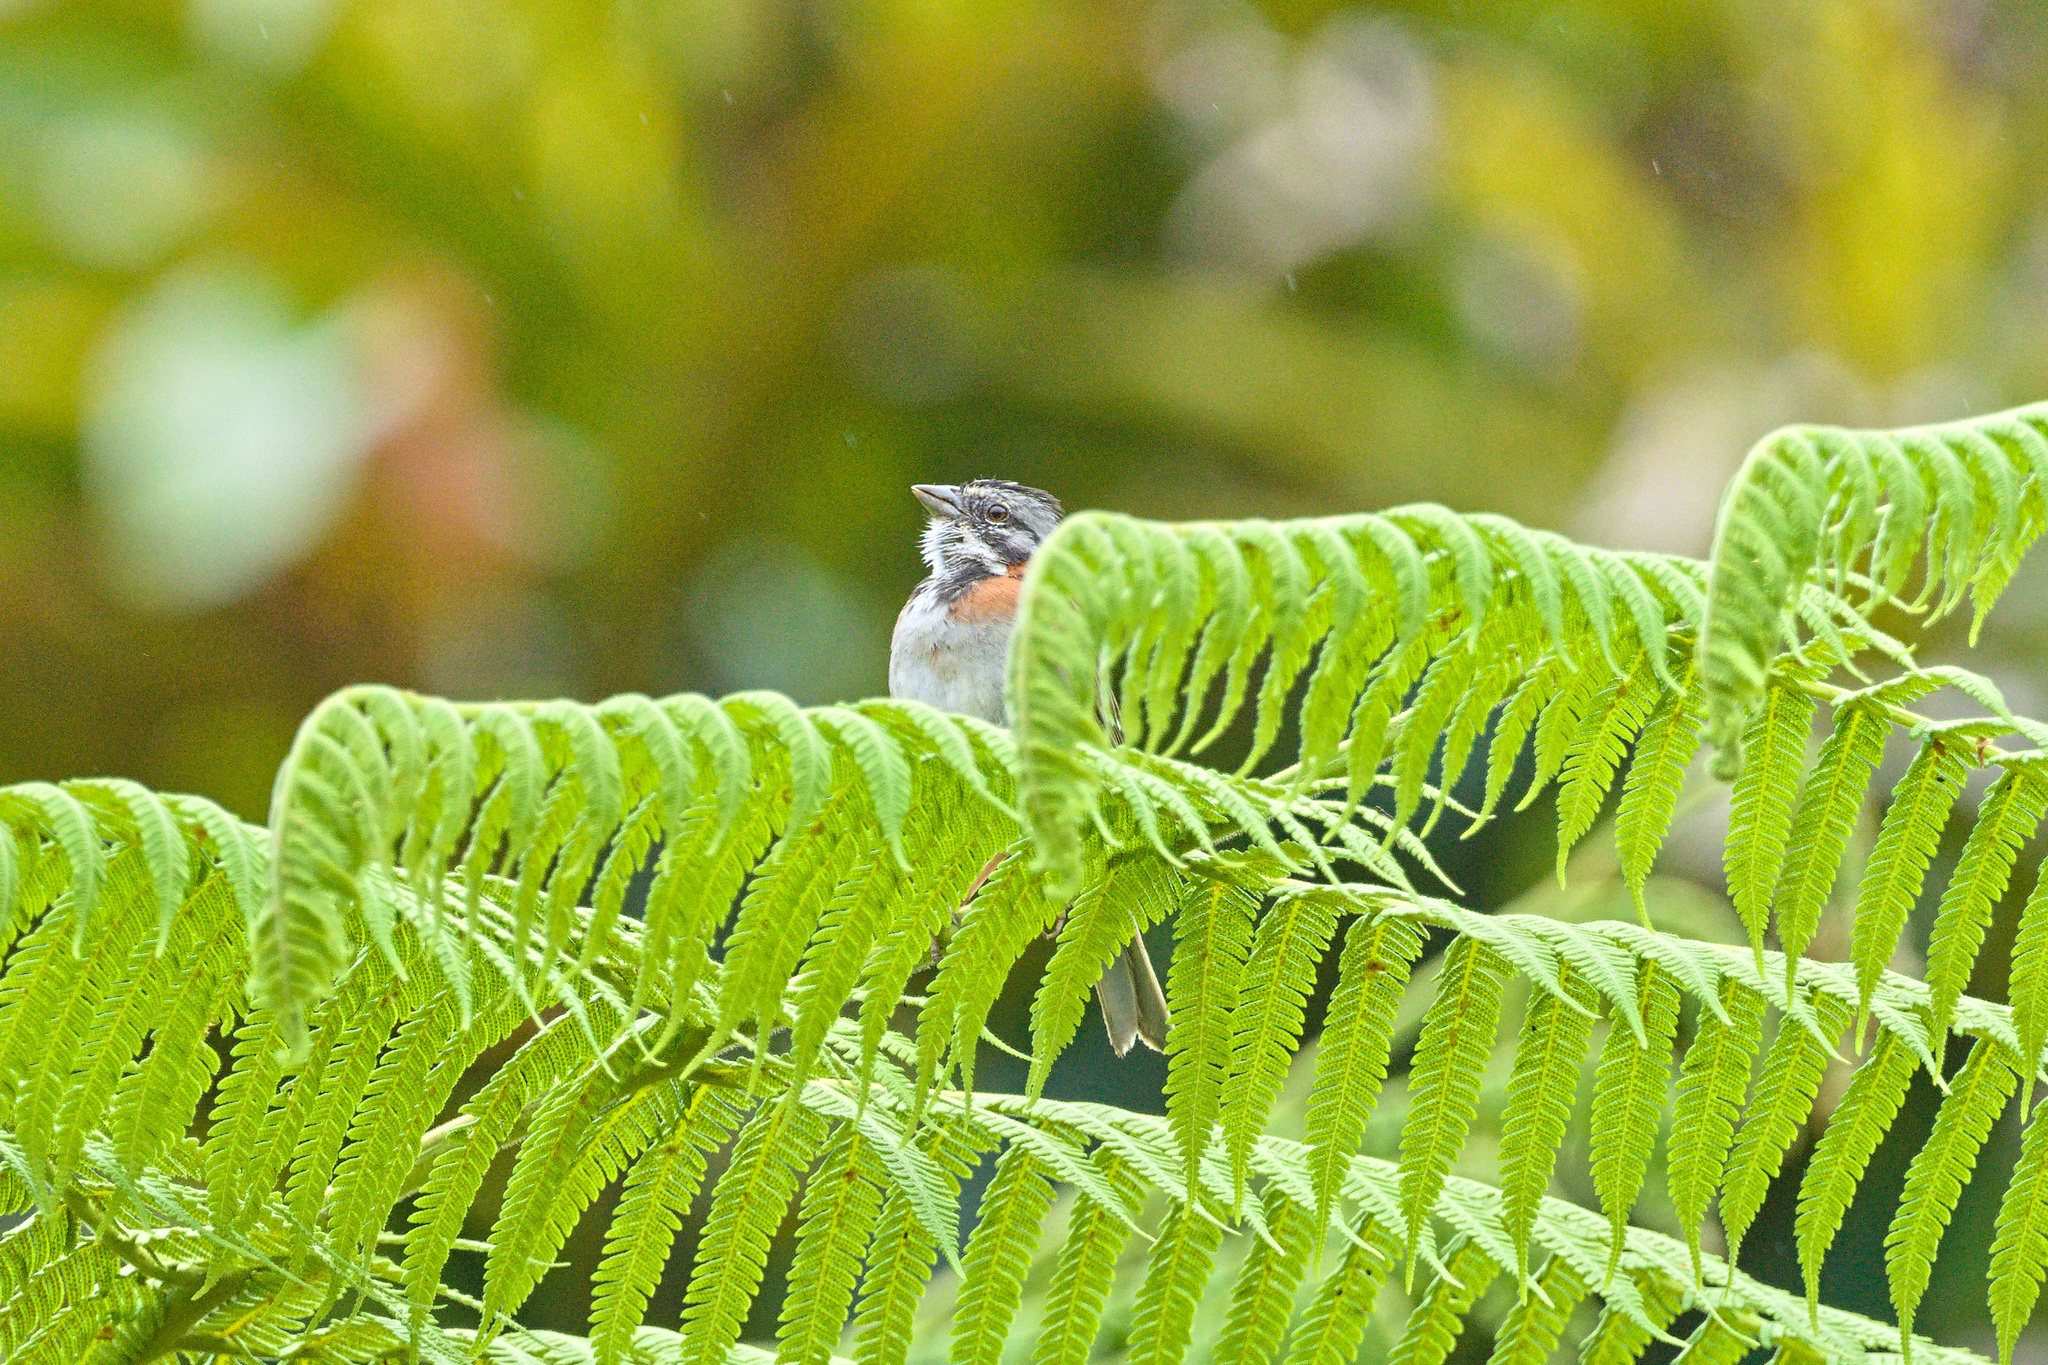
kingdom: Animalia
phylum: Chordata
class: Aves
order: Passeriformes
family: Passerellidae
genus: Zonotrichia
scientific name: Zonotrichia capensis
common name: Rufous-collared sparrow
